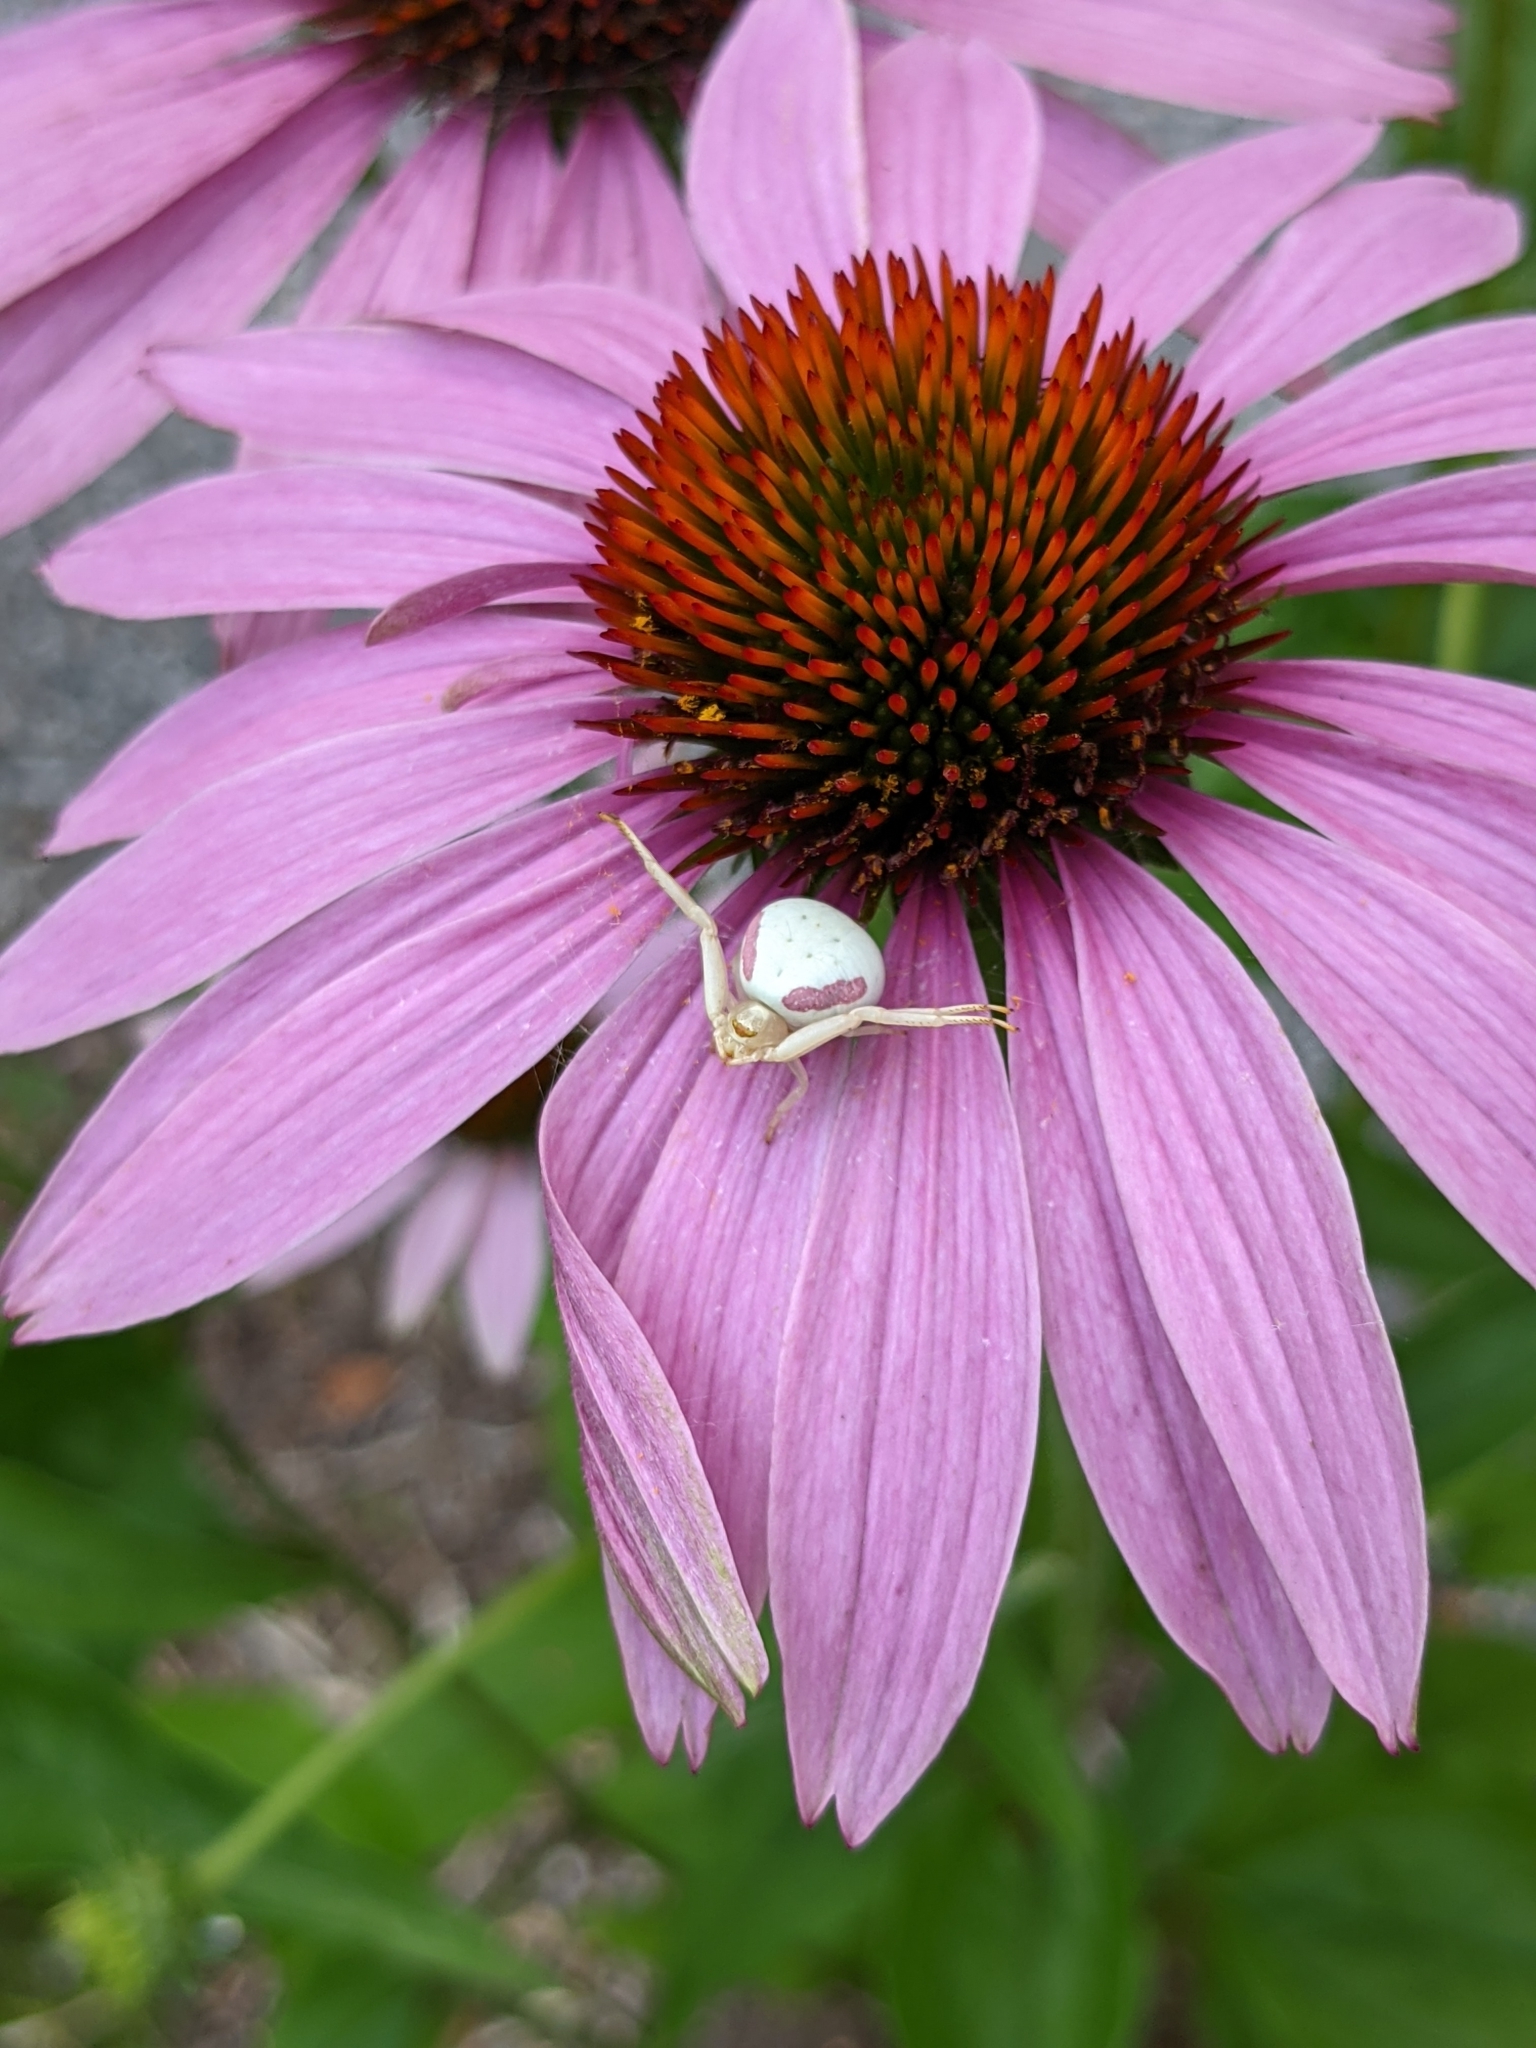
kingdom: Animalia
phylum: Arthropoda
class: Arachnida
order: Araneae
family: Thomisidae
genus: Misumena
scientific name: Misumena vatia
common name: Goldenrod crab spider
